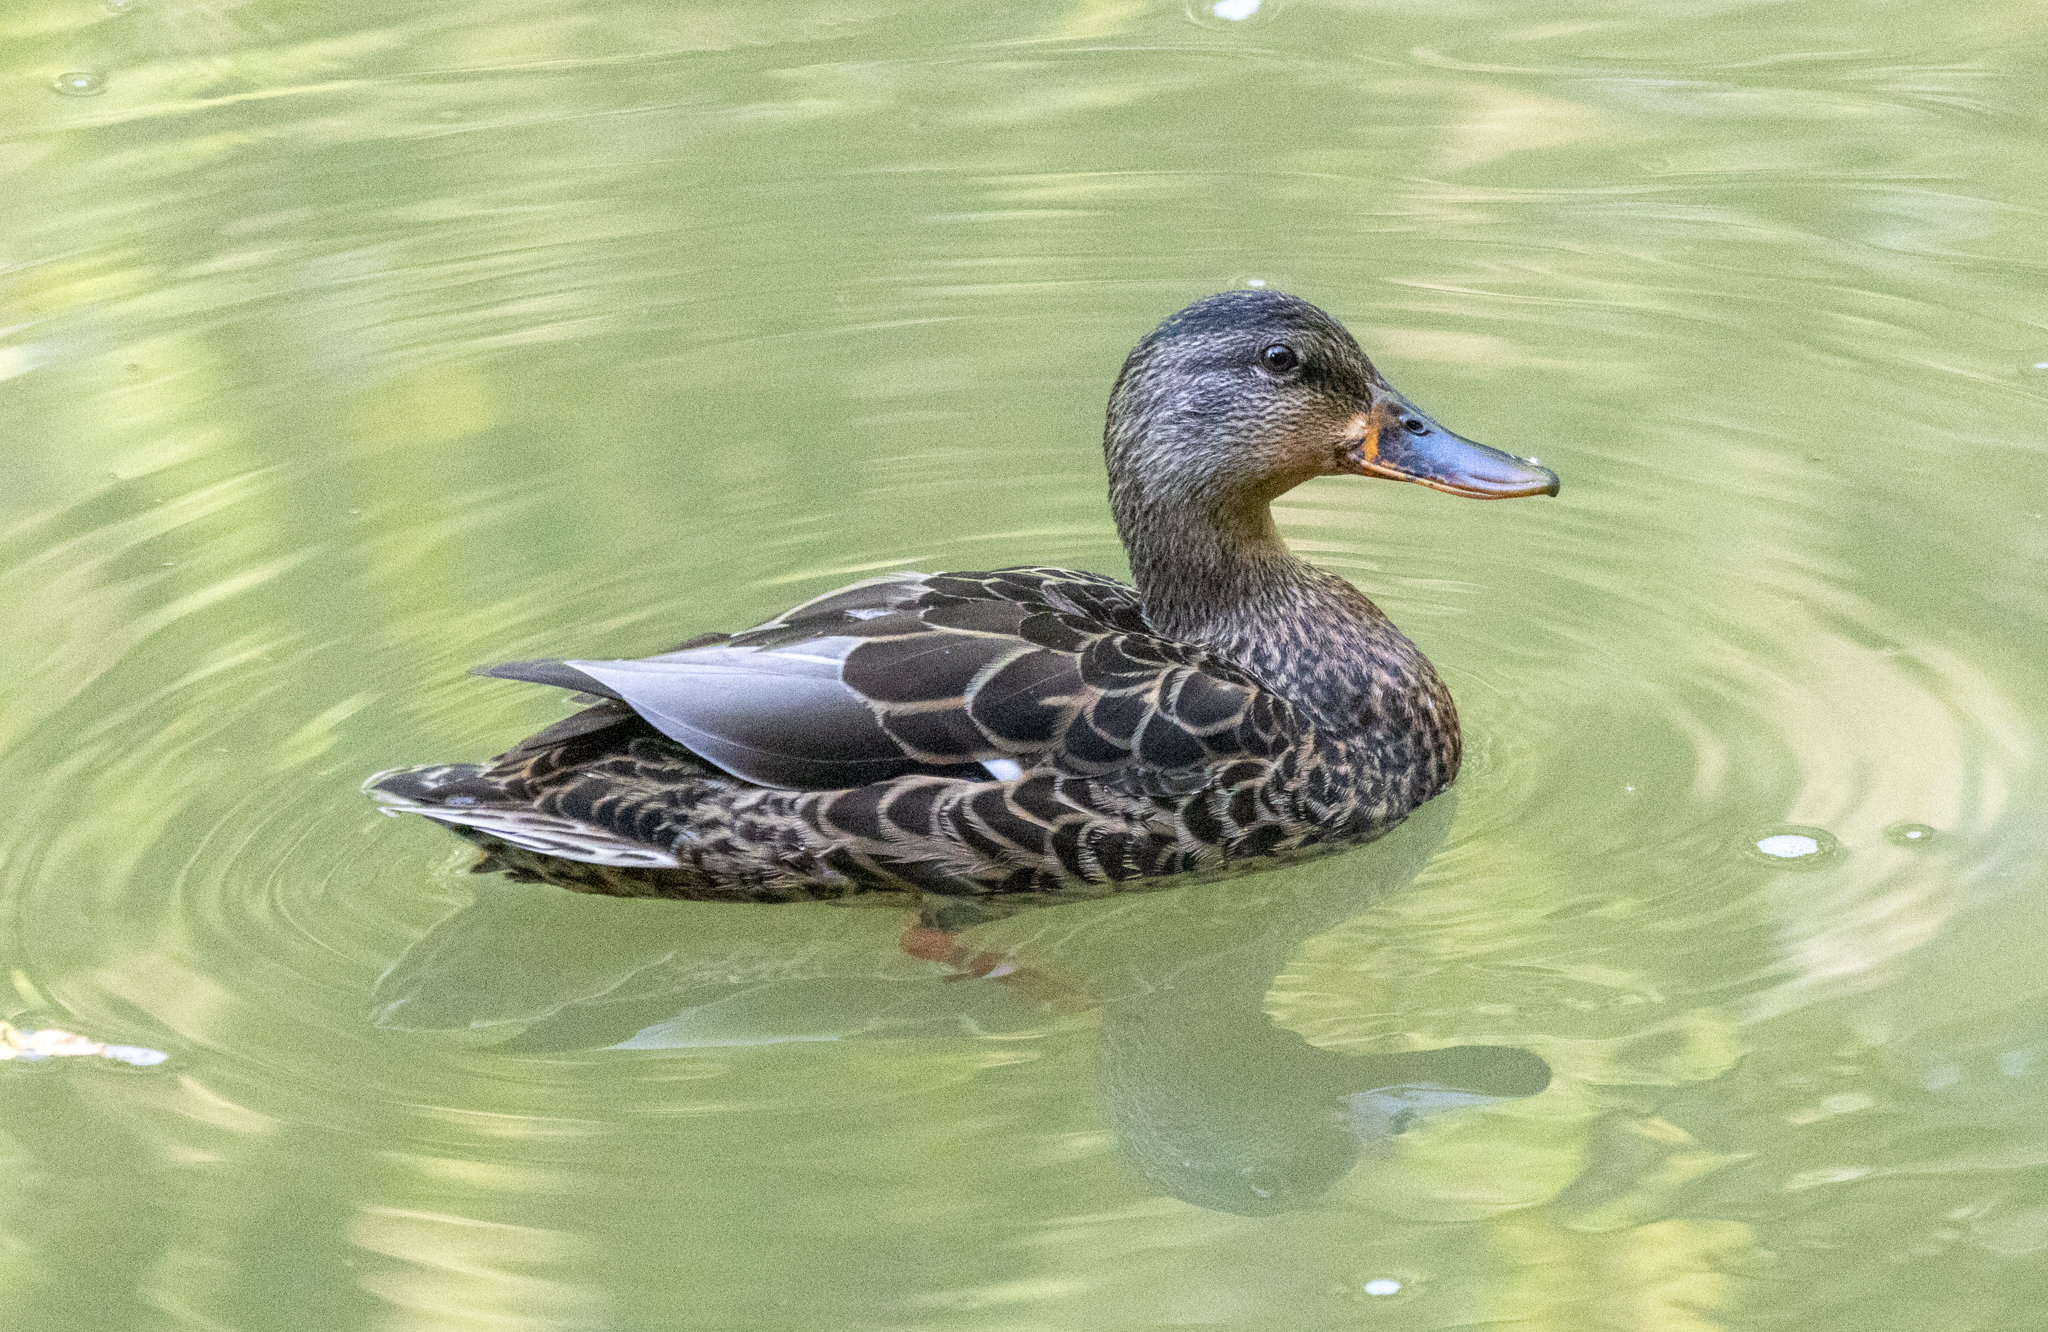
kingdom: Animalia
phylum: Chordata
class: Aves
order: Anseriformes
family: Anatidae
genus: Anas
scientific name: Anas platyrhynchos
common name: Mallard
